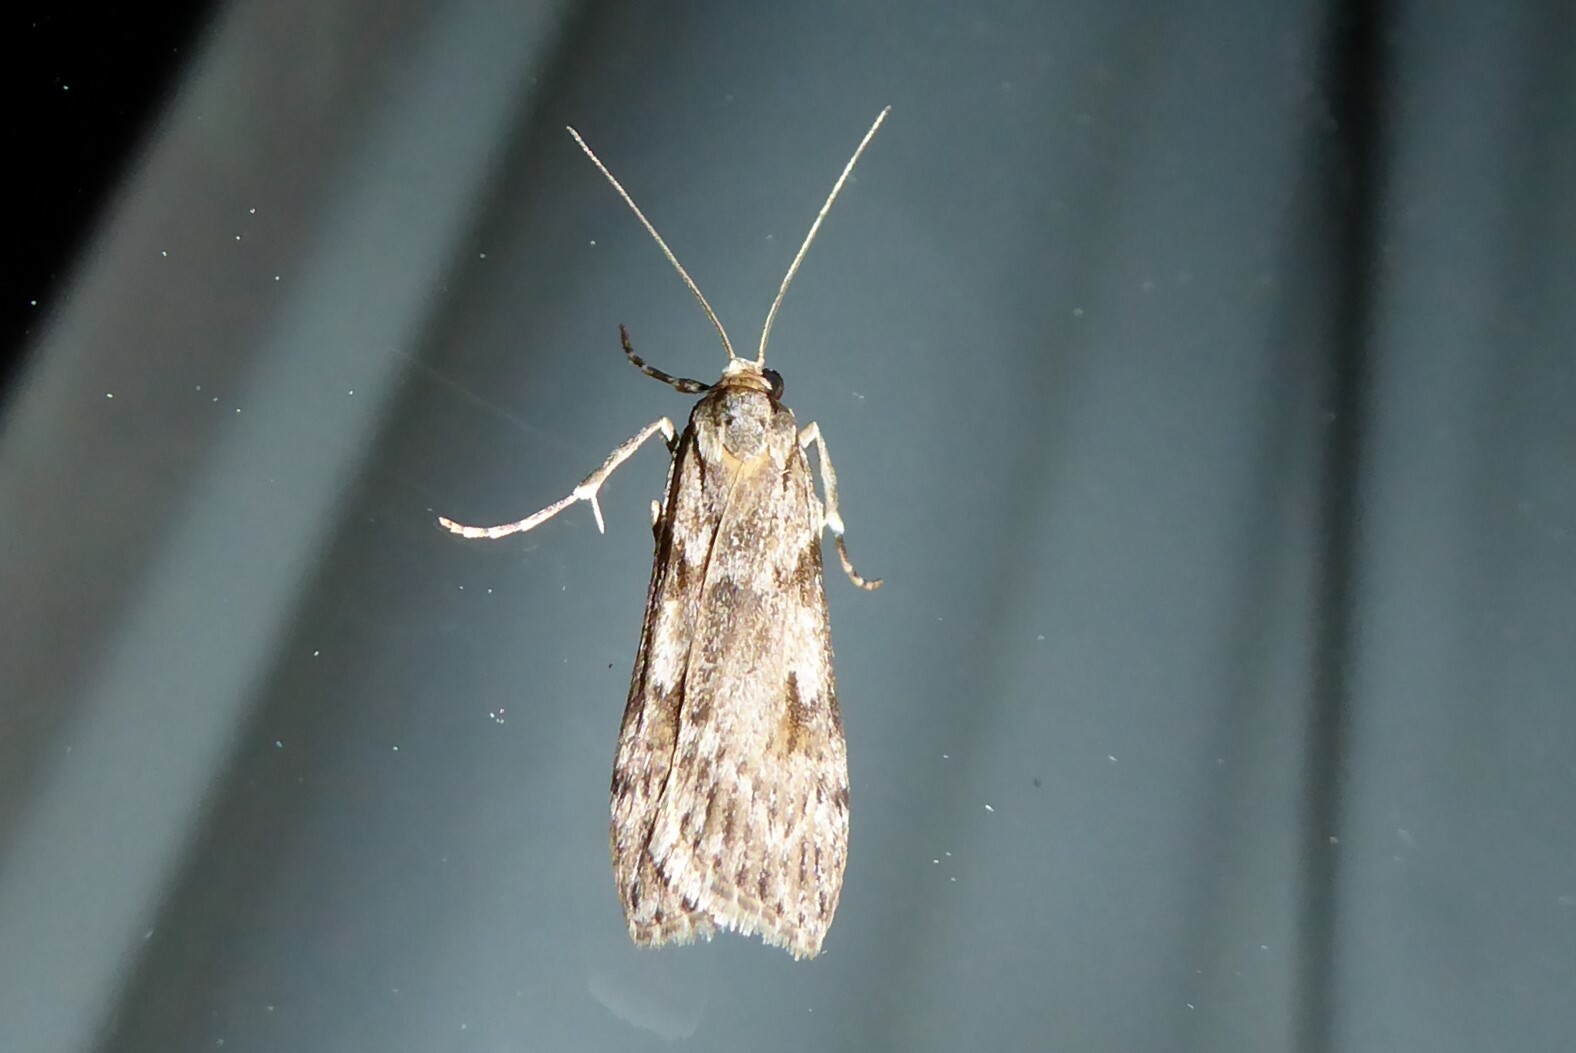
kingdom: Animalia
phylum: Arthropoda
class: Insecta
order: Lepidoptera
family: Crambidae
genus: Scoparia
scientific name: Scoparia halopis
